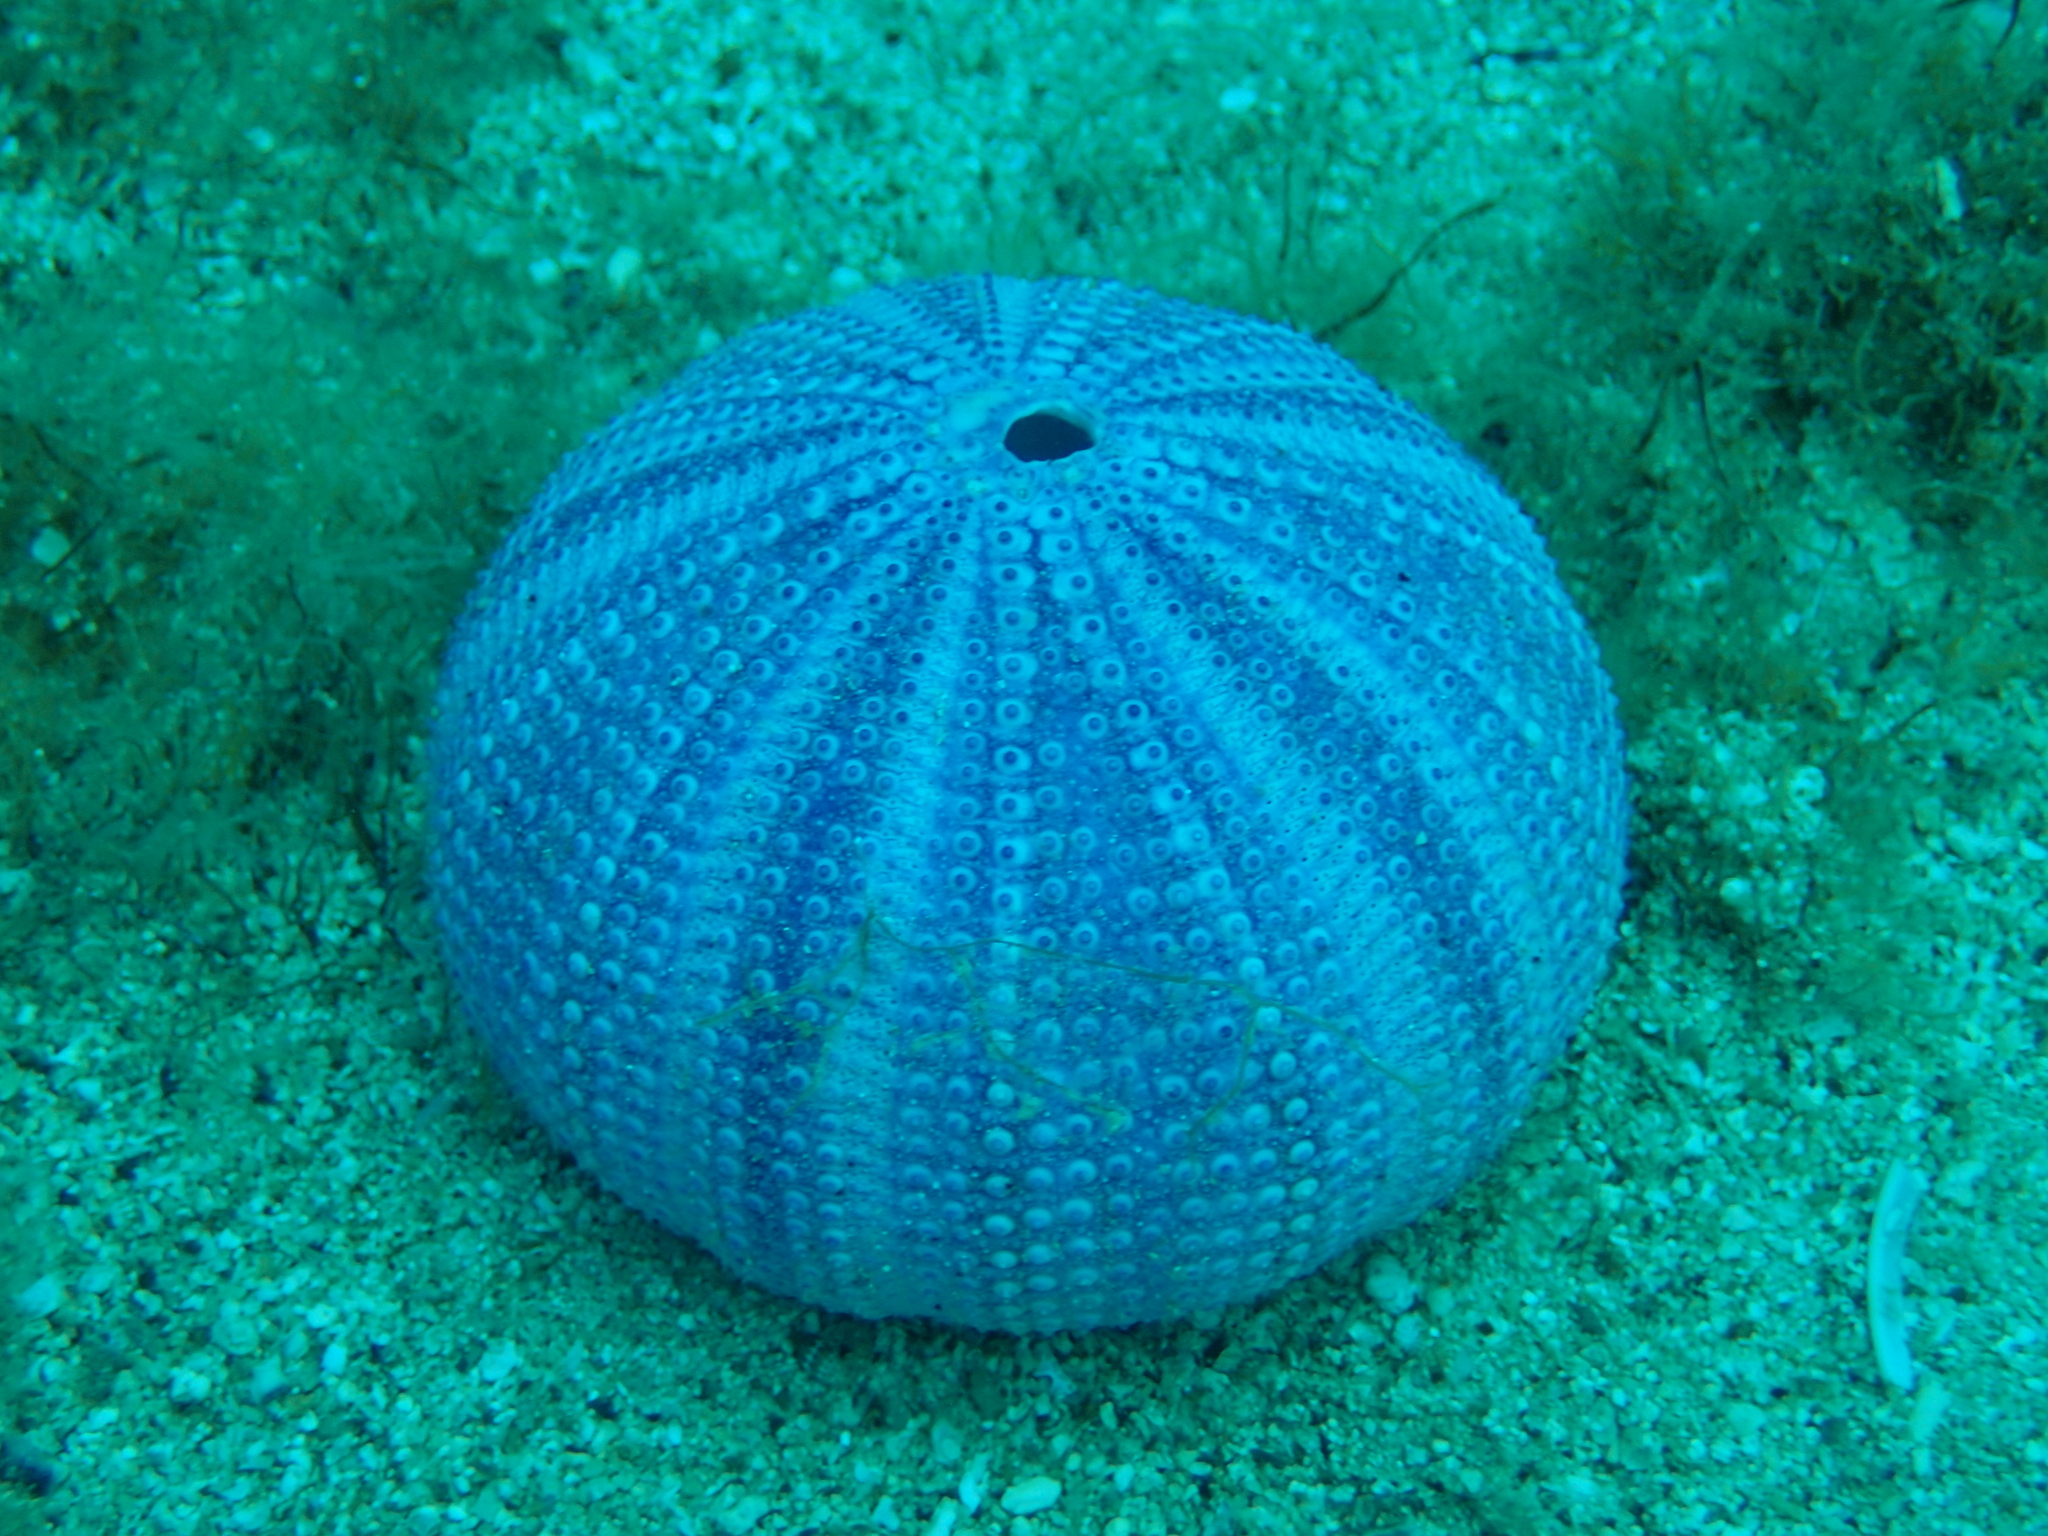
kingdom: Animalia
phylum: Echinodermata
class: Echinoidea
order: Camarodonta
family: Toxopneustidae
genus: Sphaerechinus
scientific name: Sphaerechinus granularis
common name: Violet sea urchin
